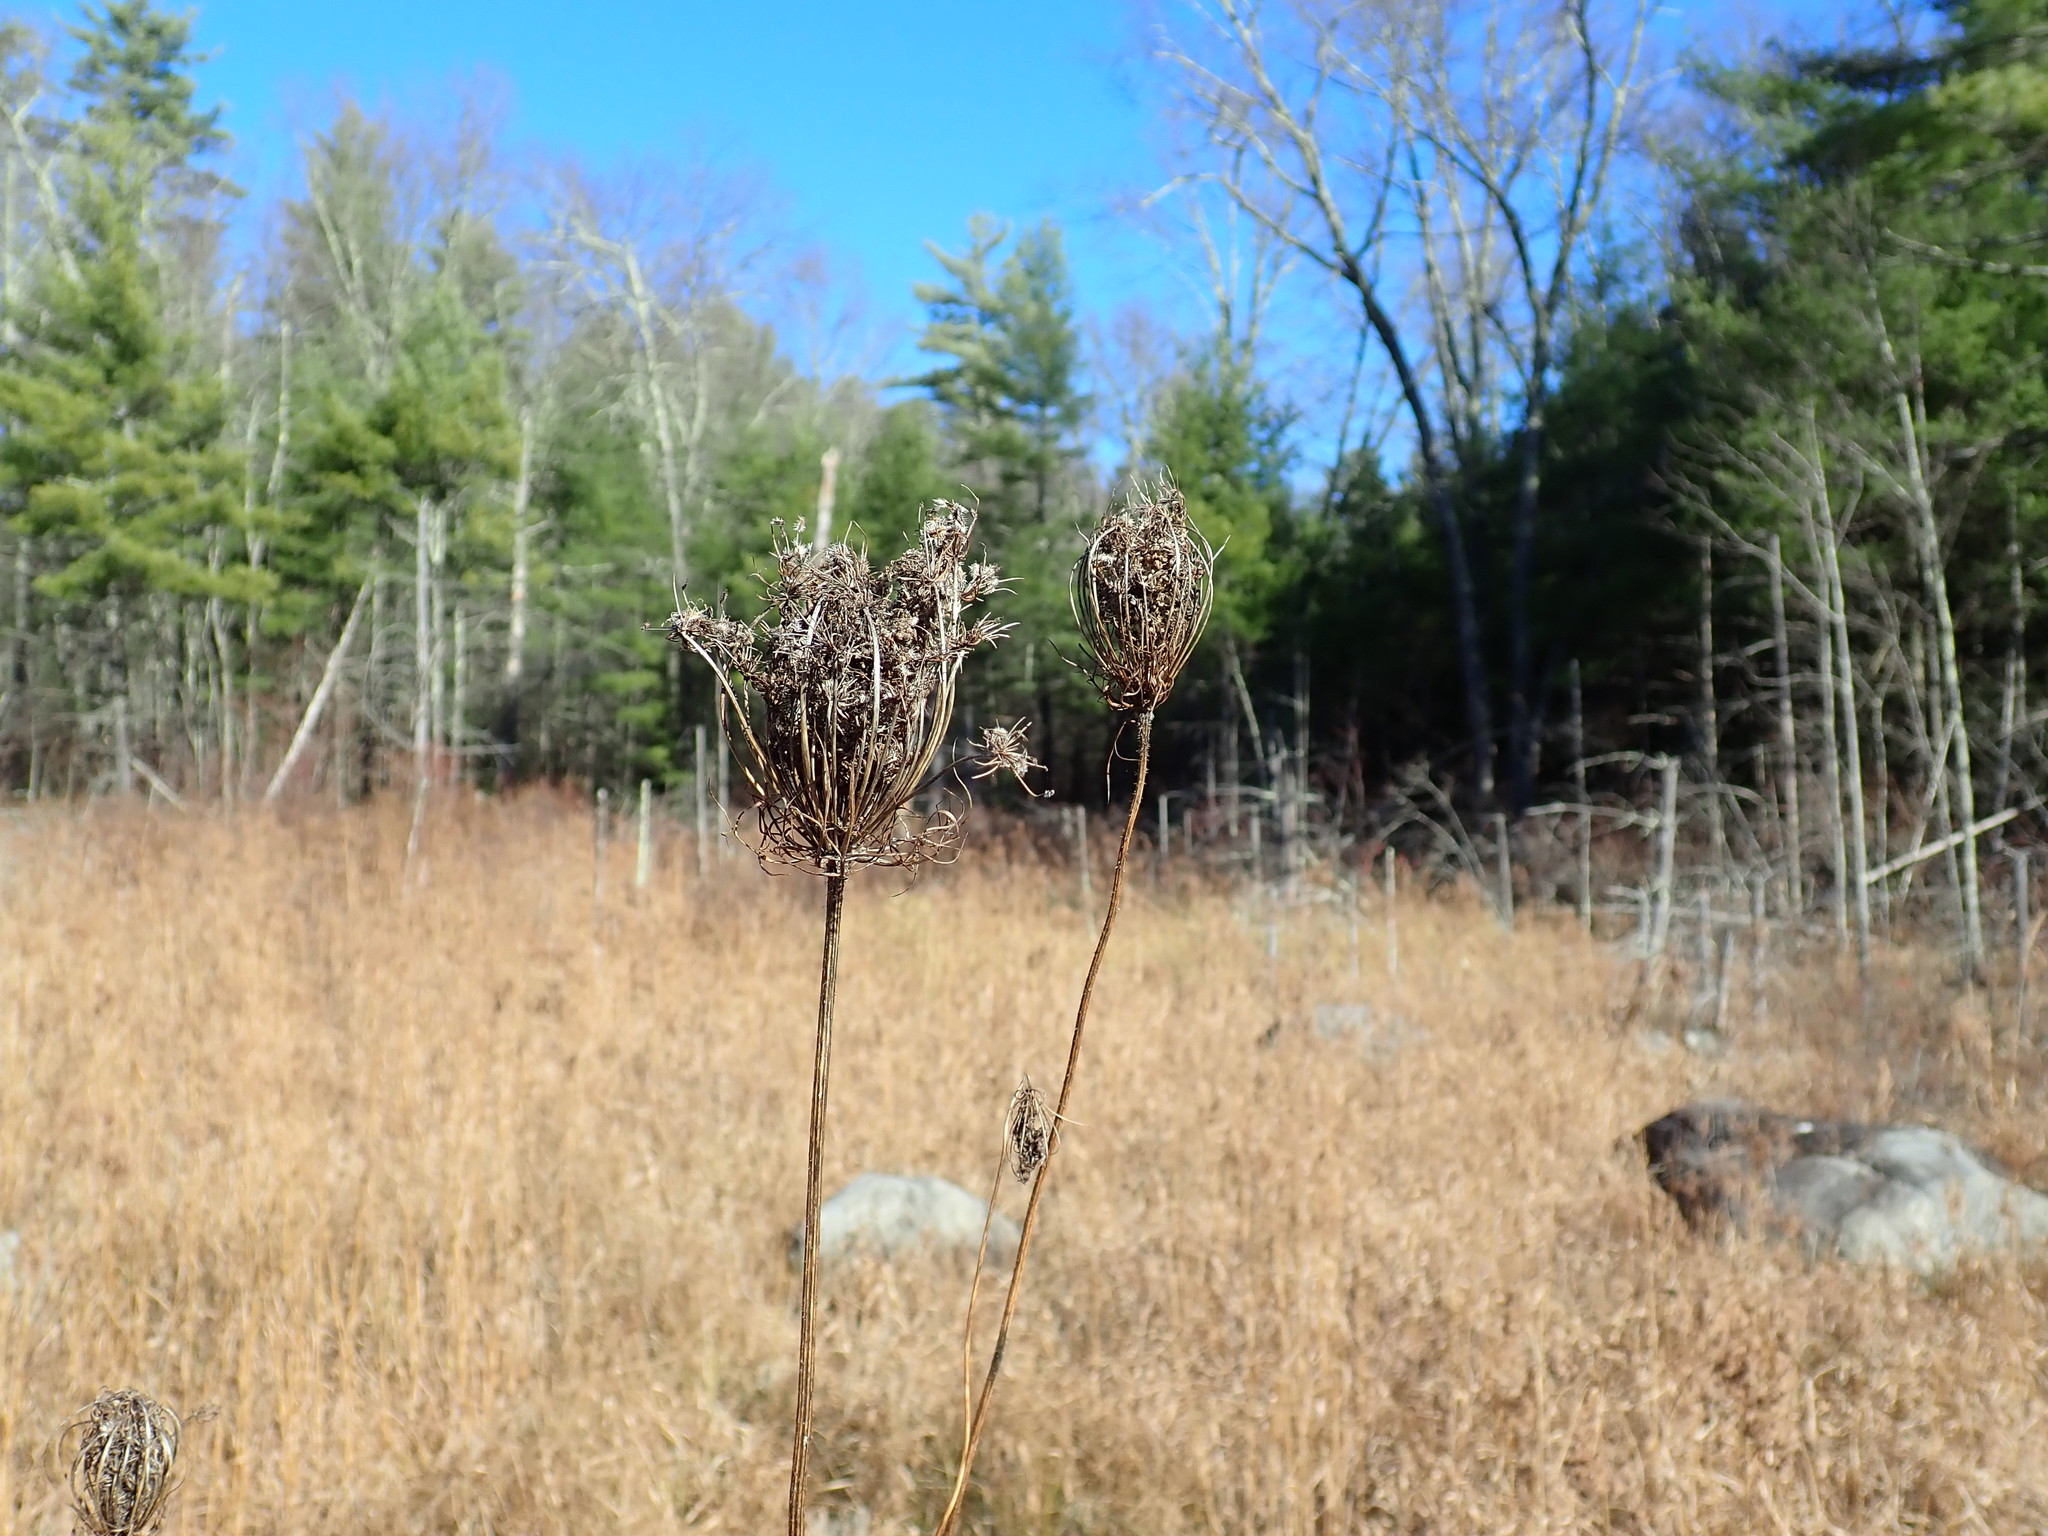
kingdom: Plantae
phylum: Tracheophyta
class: Magnoliopsida
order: Apiales
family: Apiaceae
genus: Daucus
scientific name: Daucus carota
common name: Wild carrot
